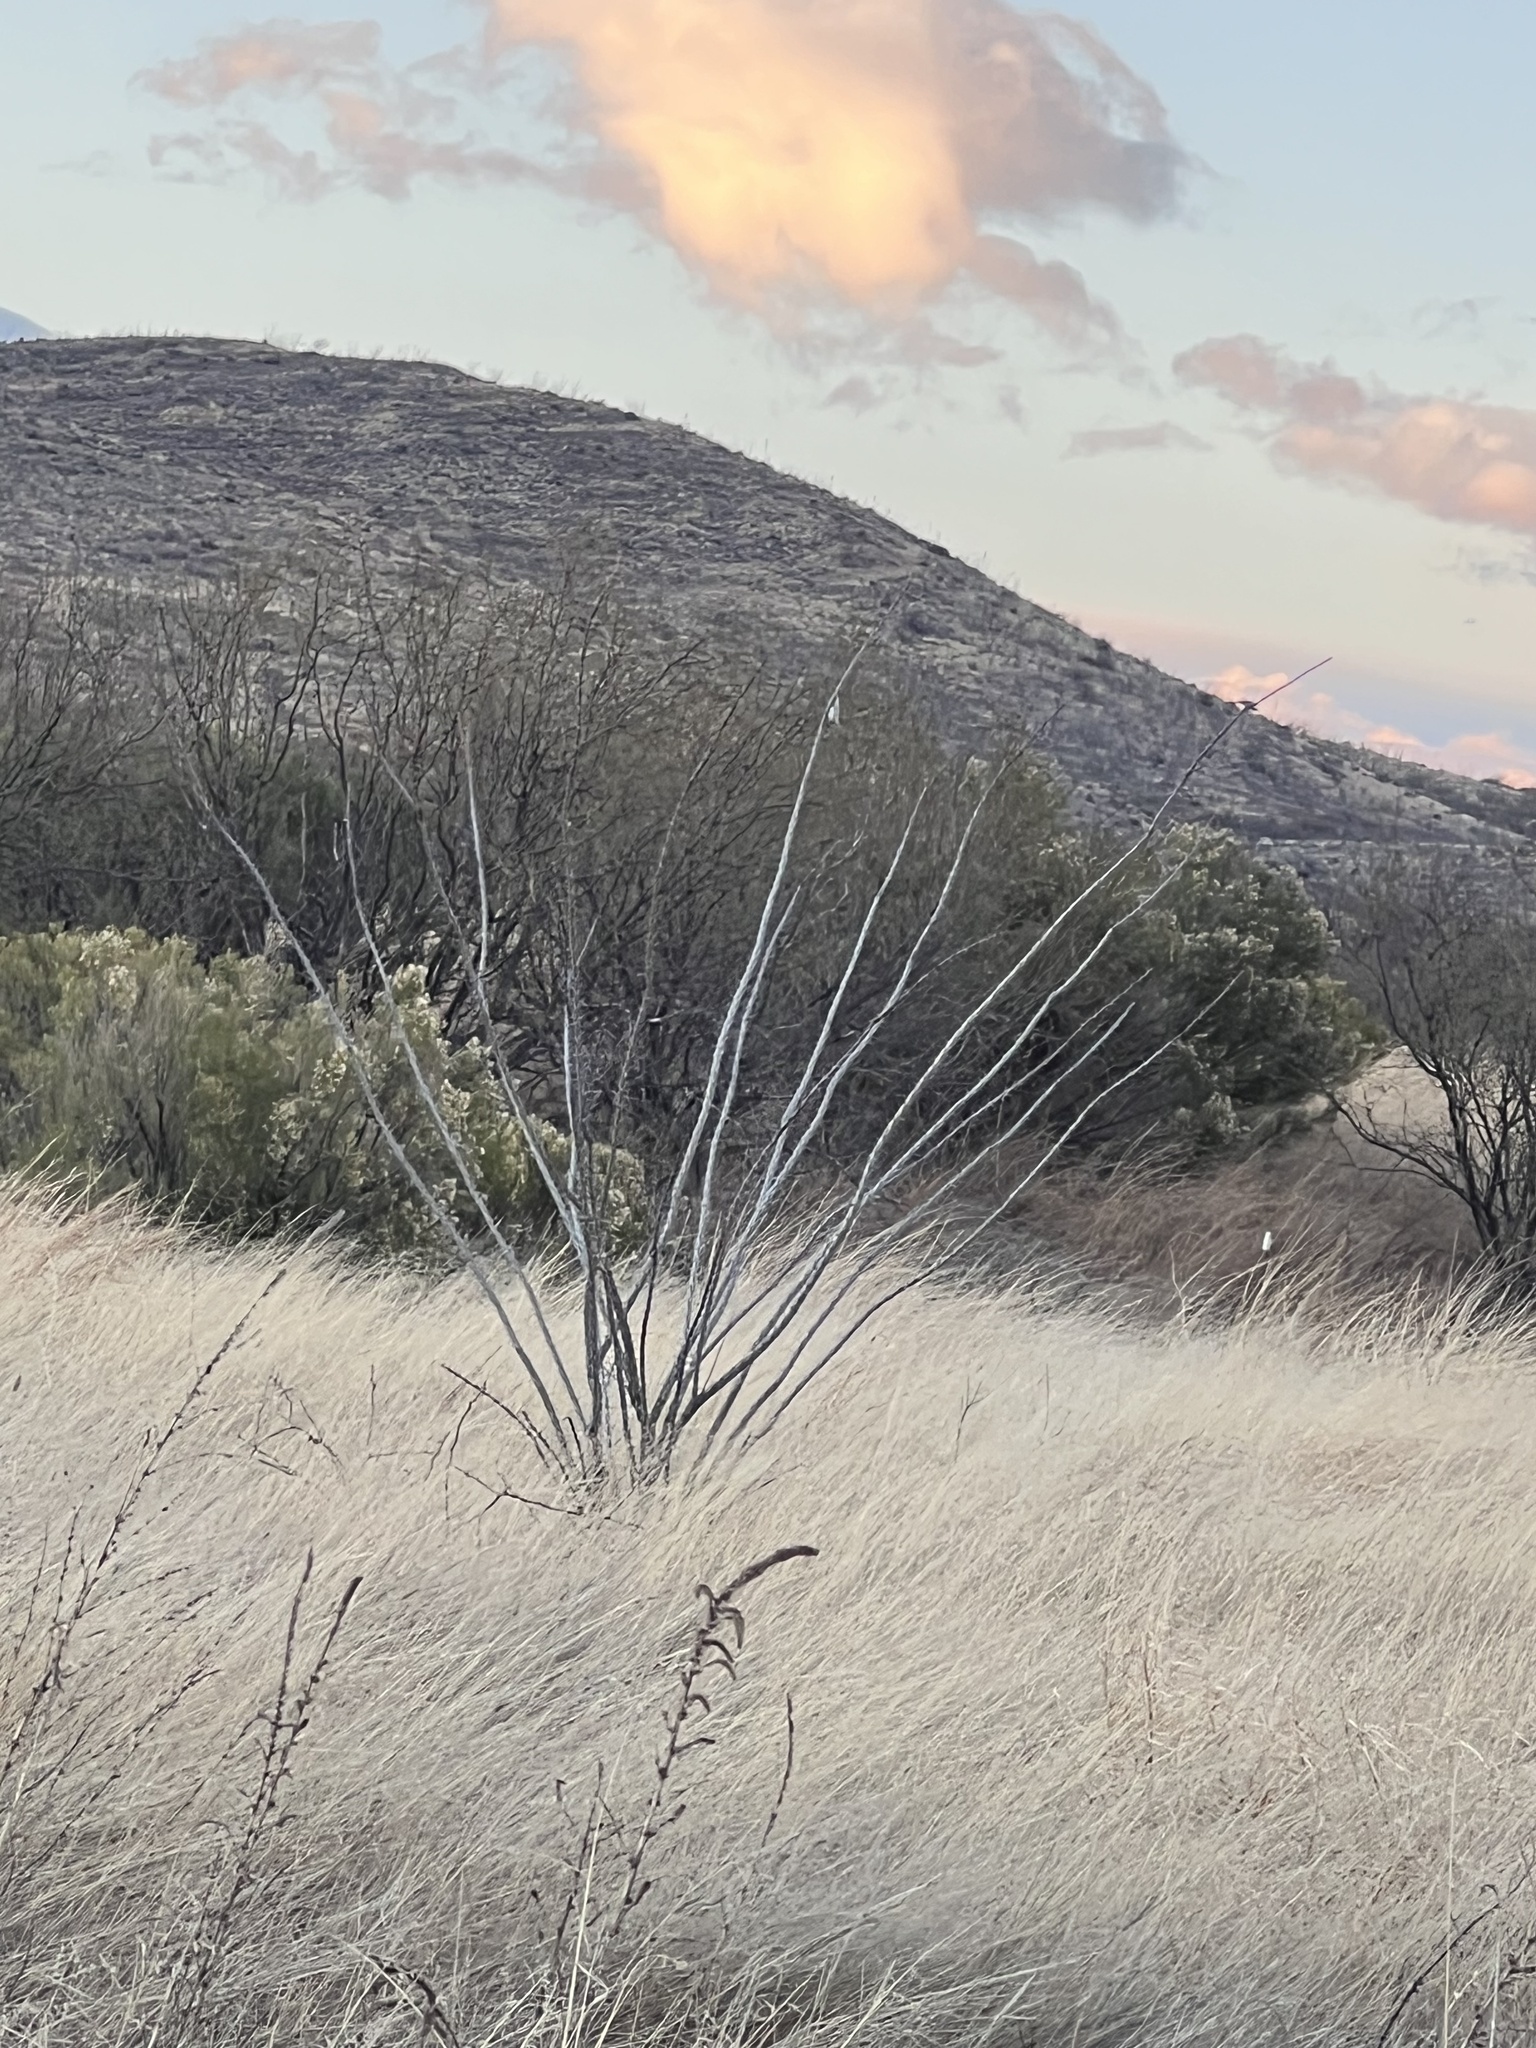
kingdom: Plantae
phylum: Tracheophyta
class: Magnoliopsida
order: Ericales
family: Fouquieriaceae
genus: Fouquieria
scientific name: Fouquieria splendens
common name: Vine-cactus
